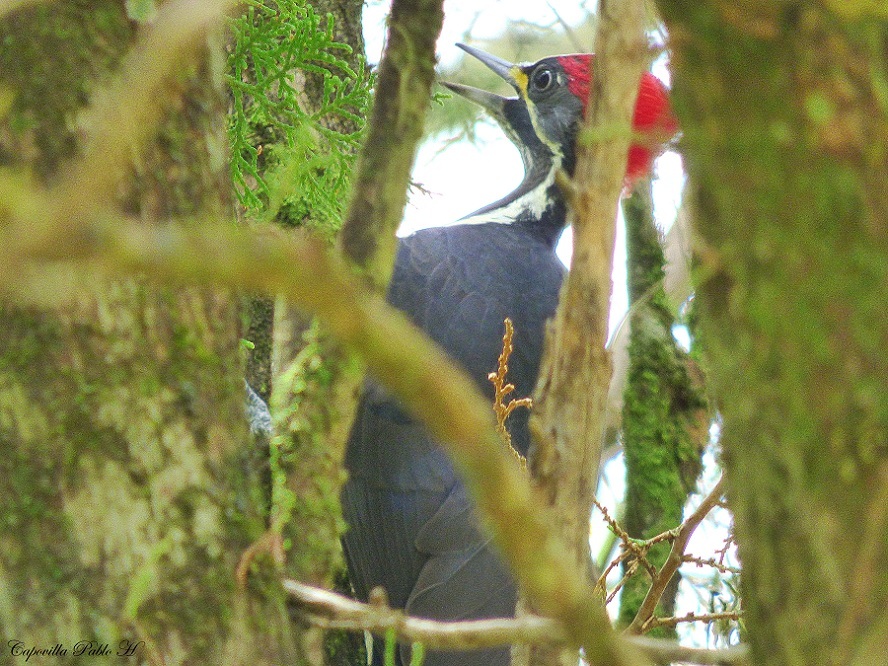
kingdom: Animalia
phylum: Chordata
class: Aves
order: Piciformes
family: Picidae
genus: Dryocopus
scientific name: Dryocopus lineatus
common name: Lineated woodpecker
